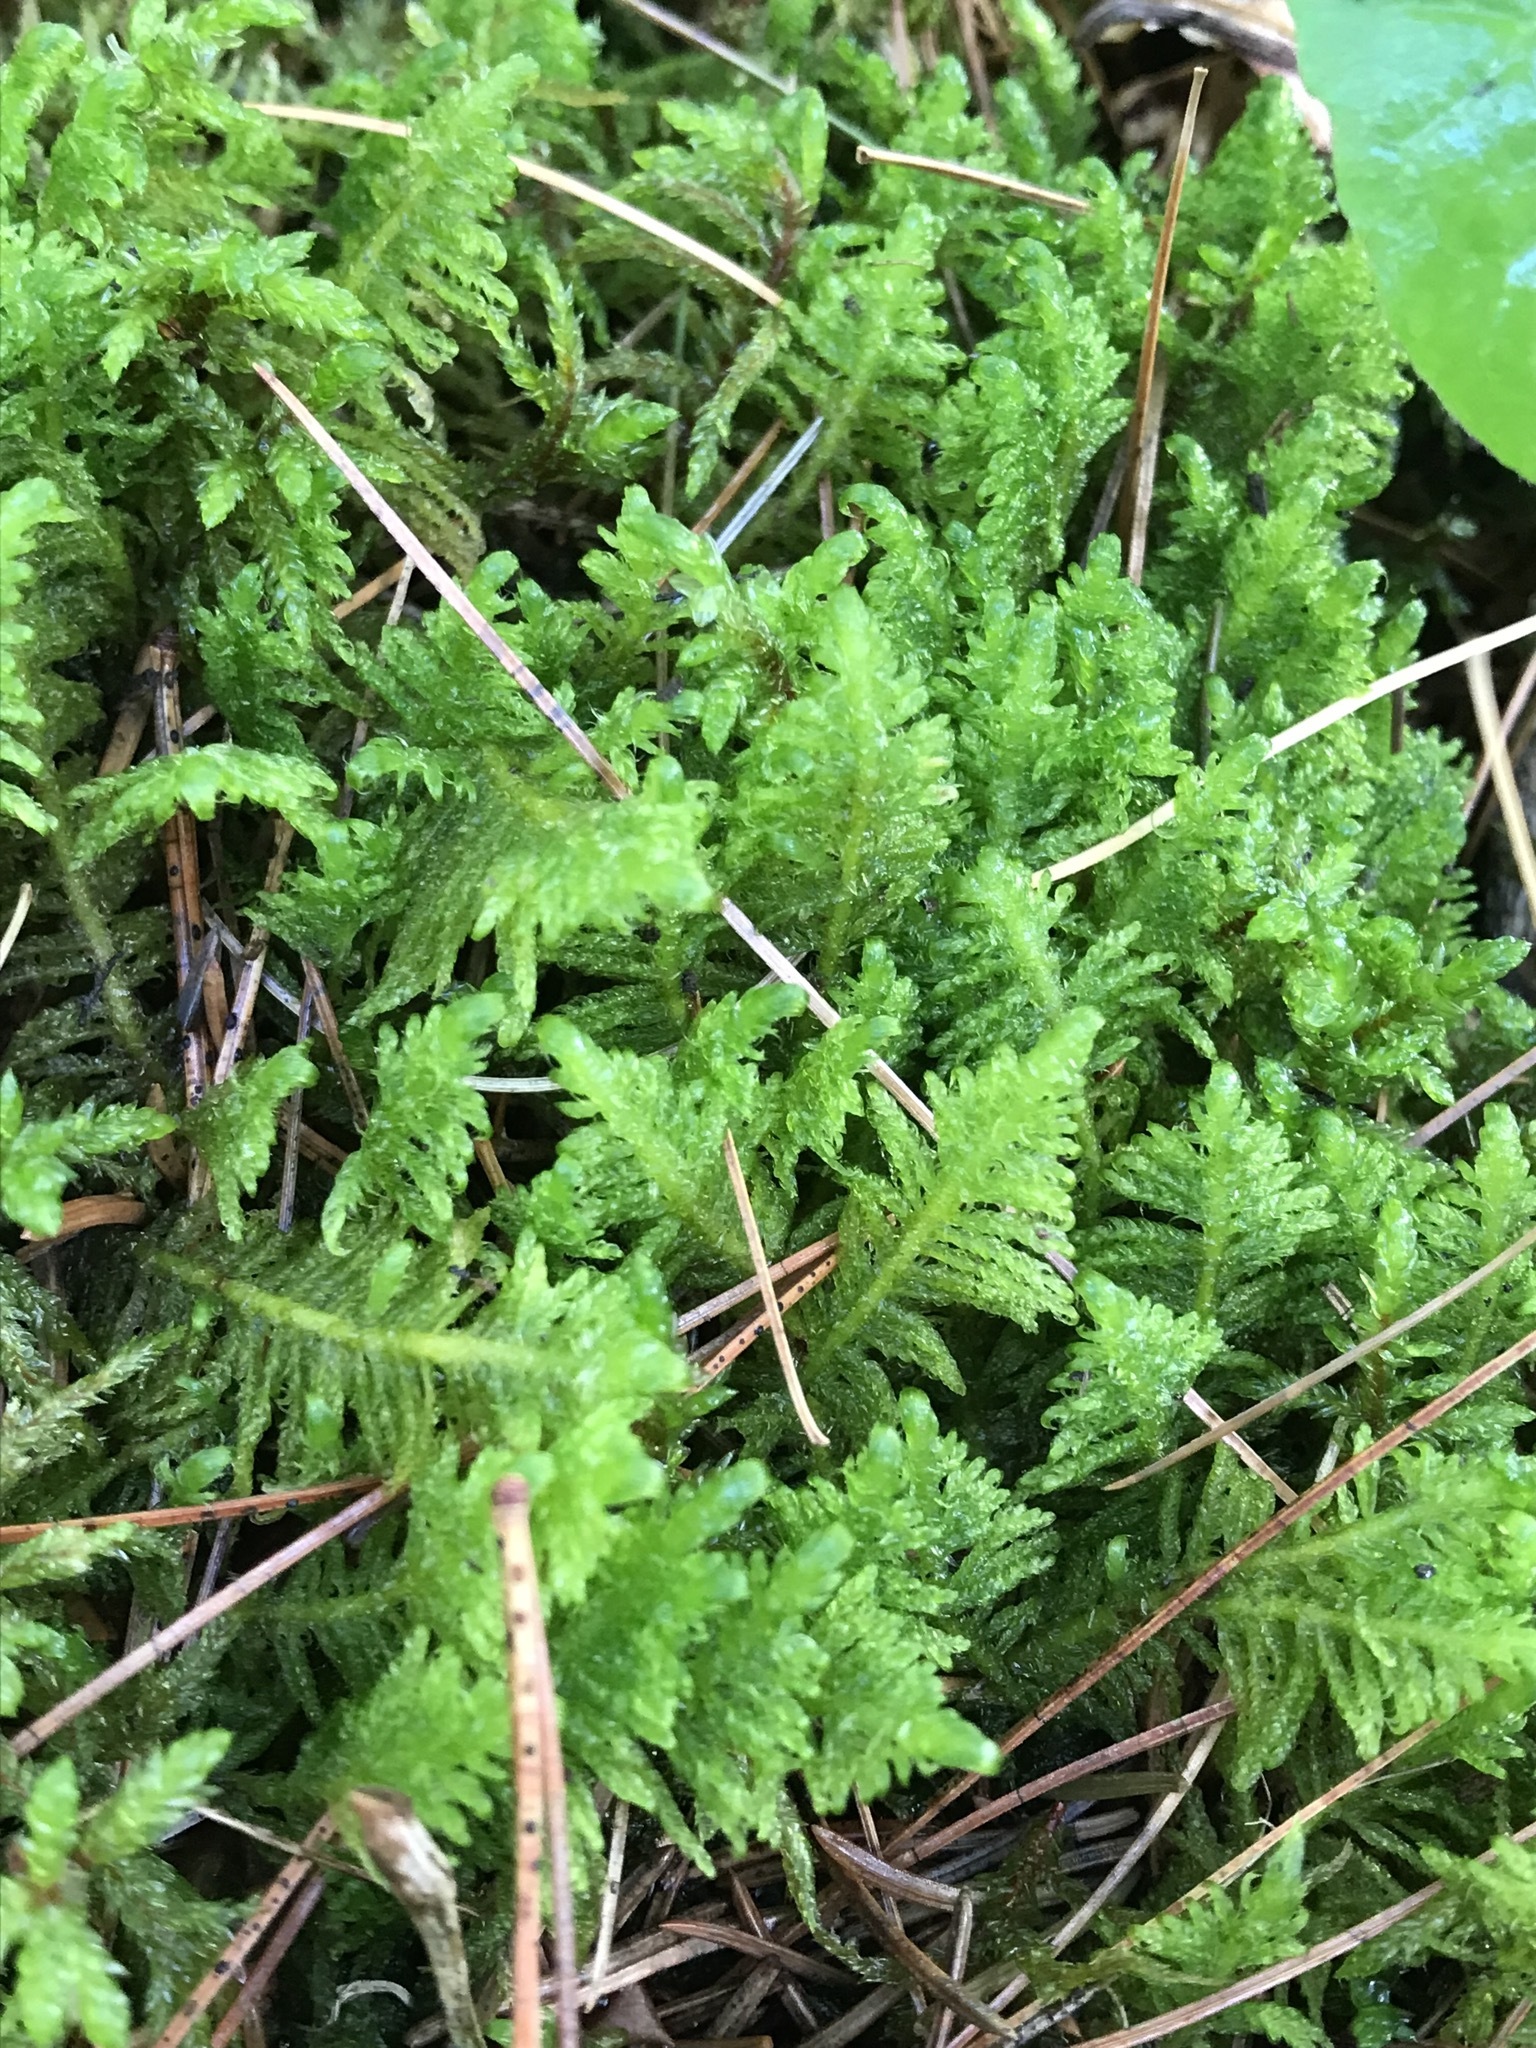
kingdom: Plantae
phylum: Bryophyta
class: Bryopsida
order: Hypnales
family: Pylaisiaceae
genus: Ptilium
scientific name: Ptilium crista-castrensis
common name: Knight's plume moss
